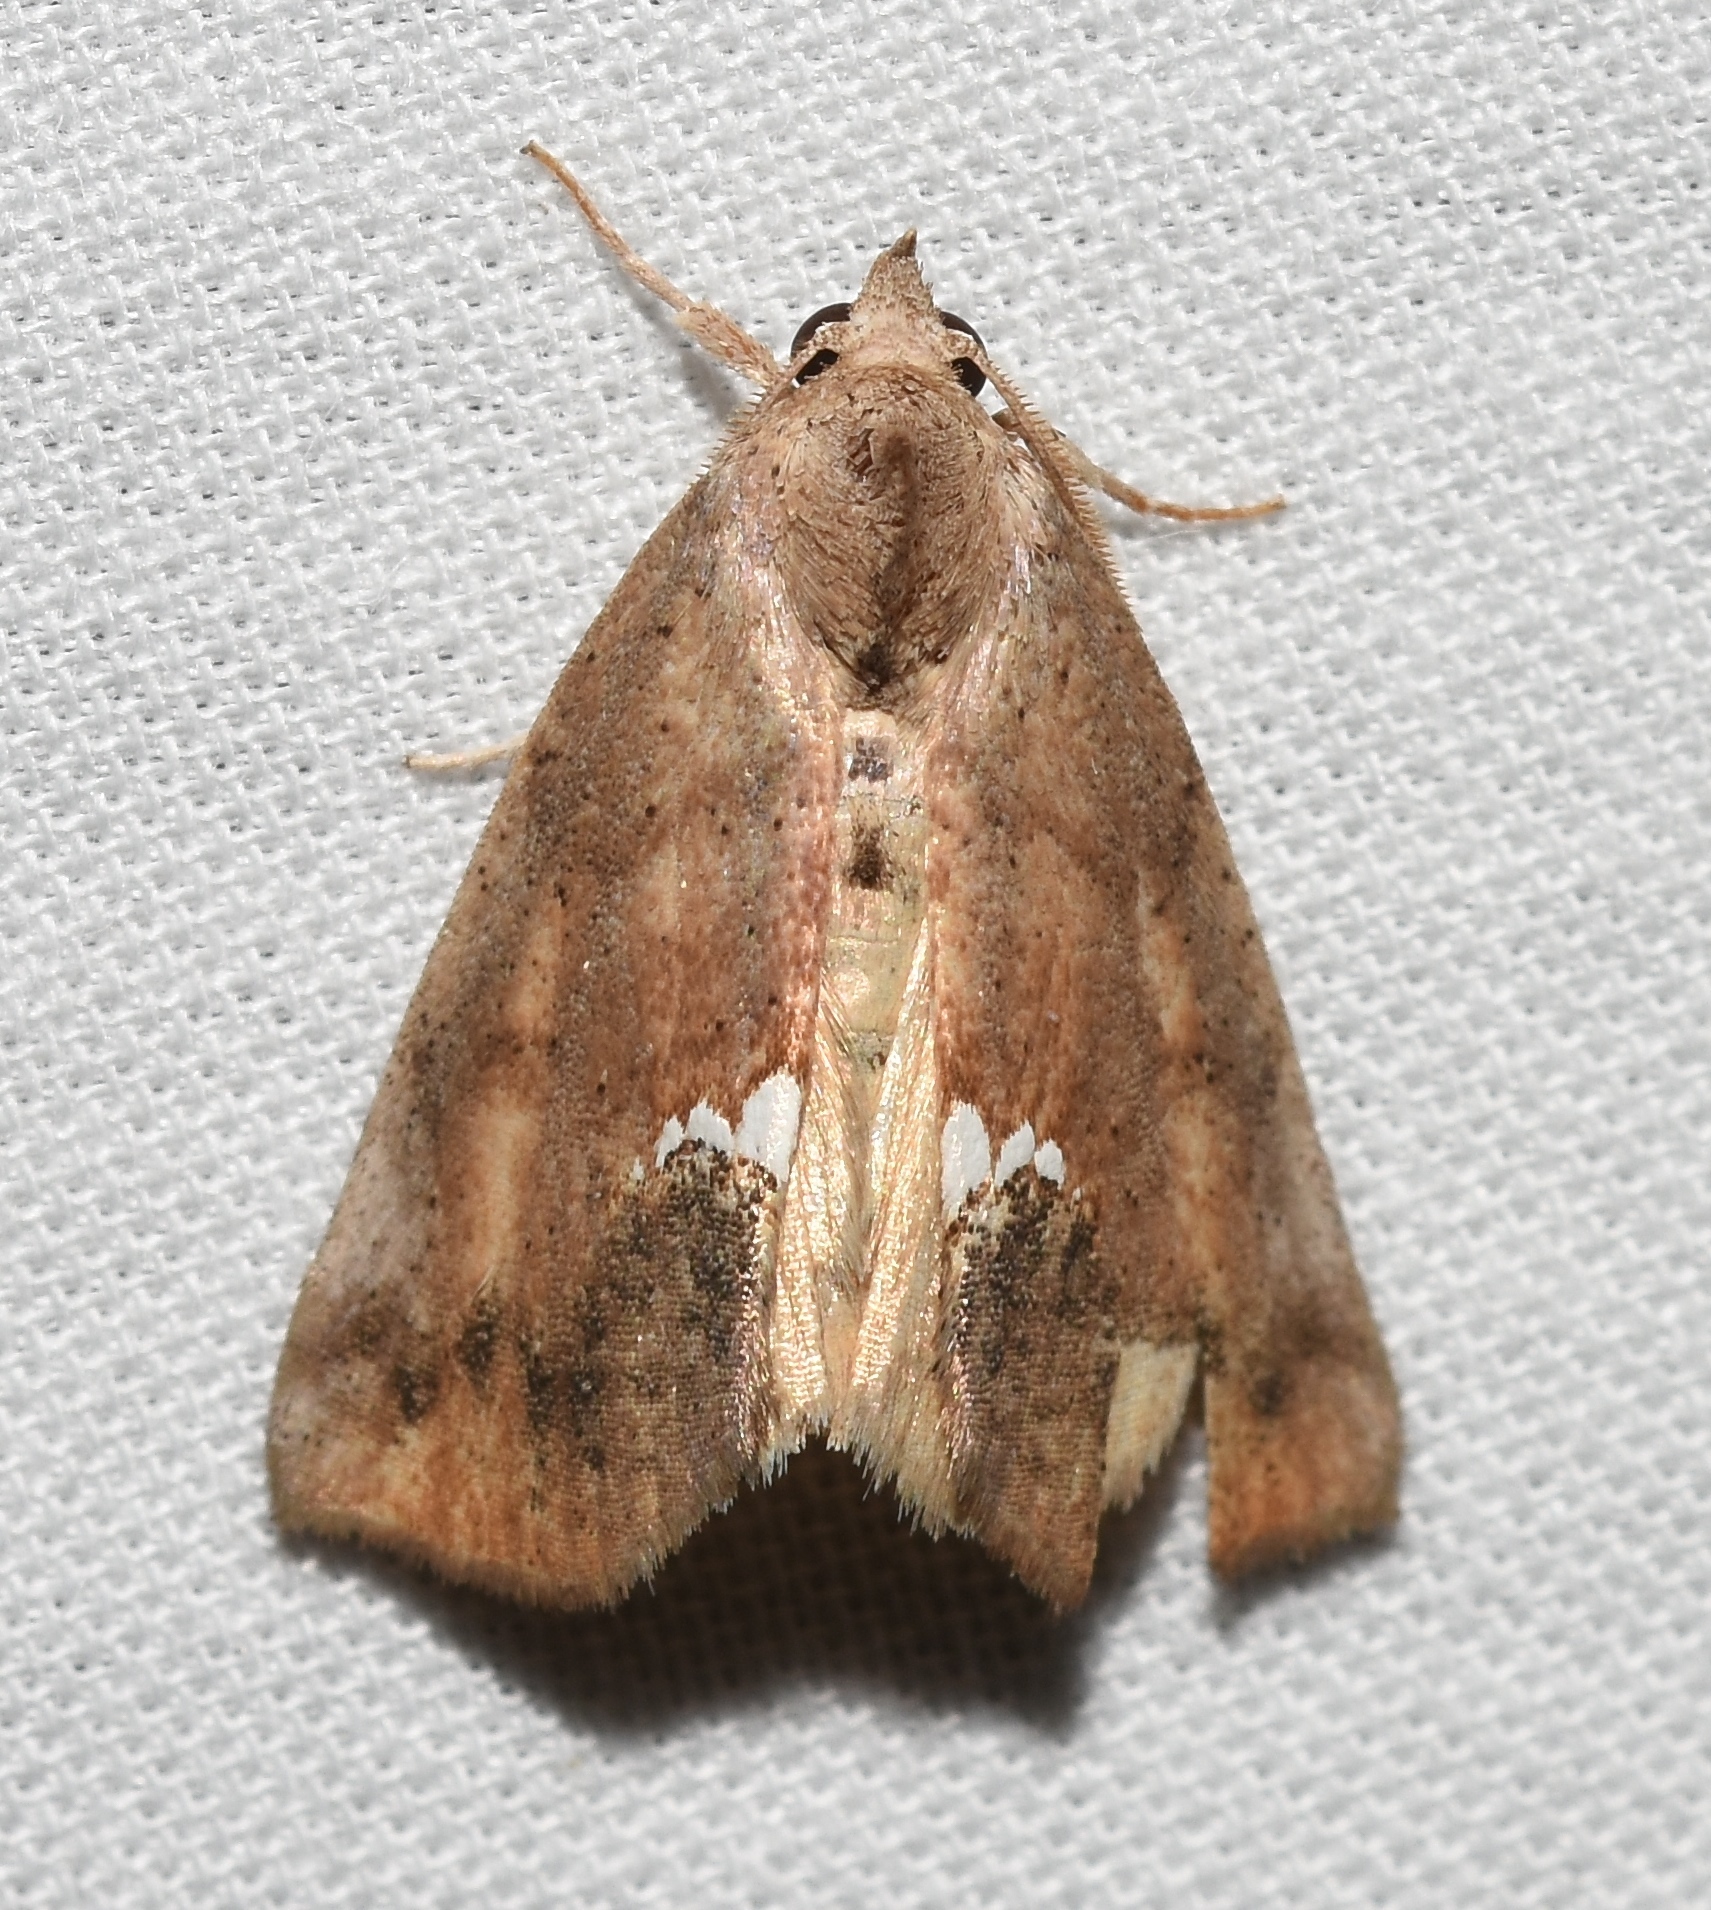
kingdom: Animalia
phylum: Arthropoda
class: Insecta
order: Lepidoptera
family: Erebidae
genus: Hypsoropha
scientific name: Hypsoropha hormos
